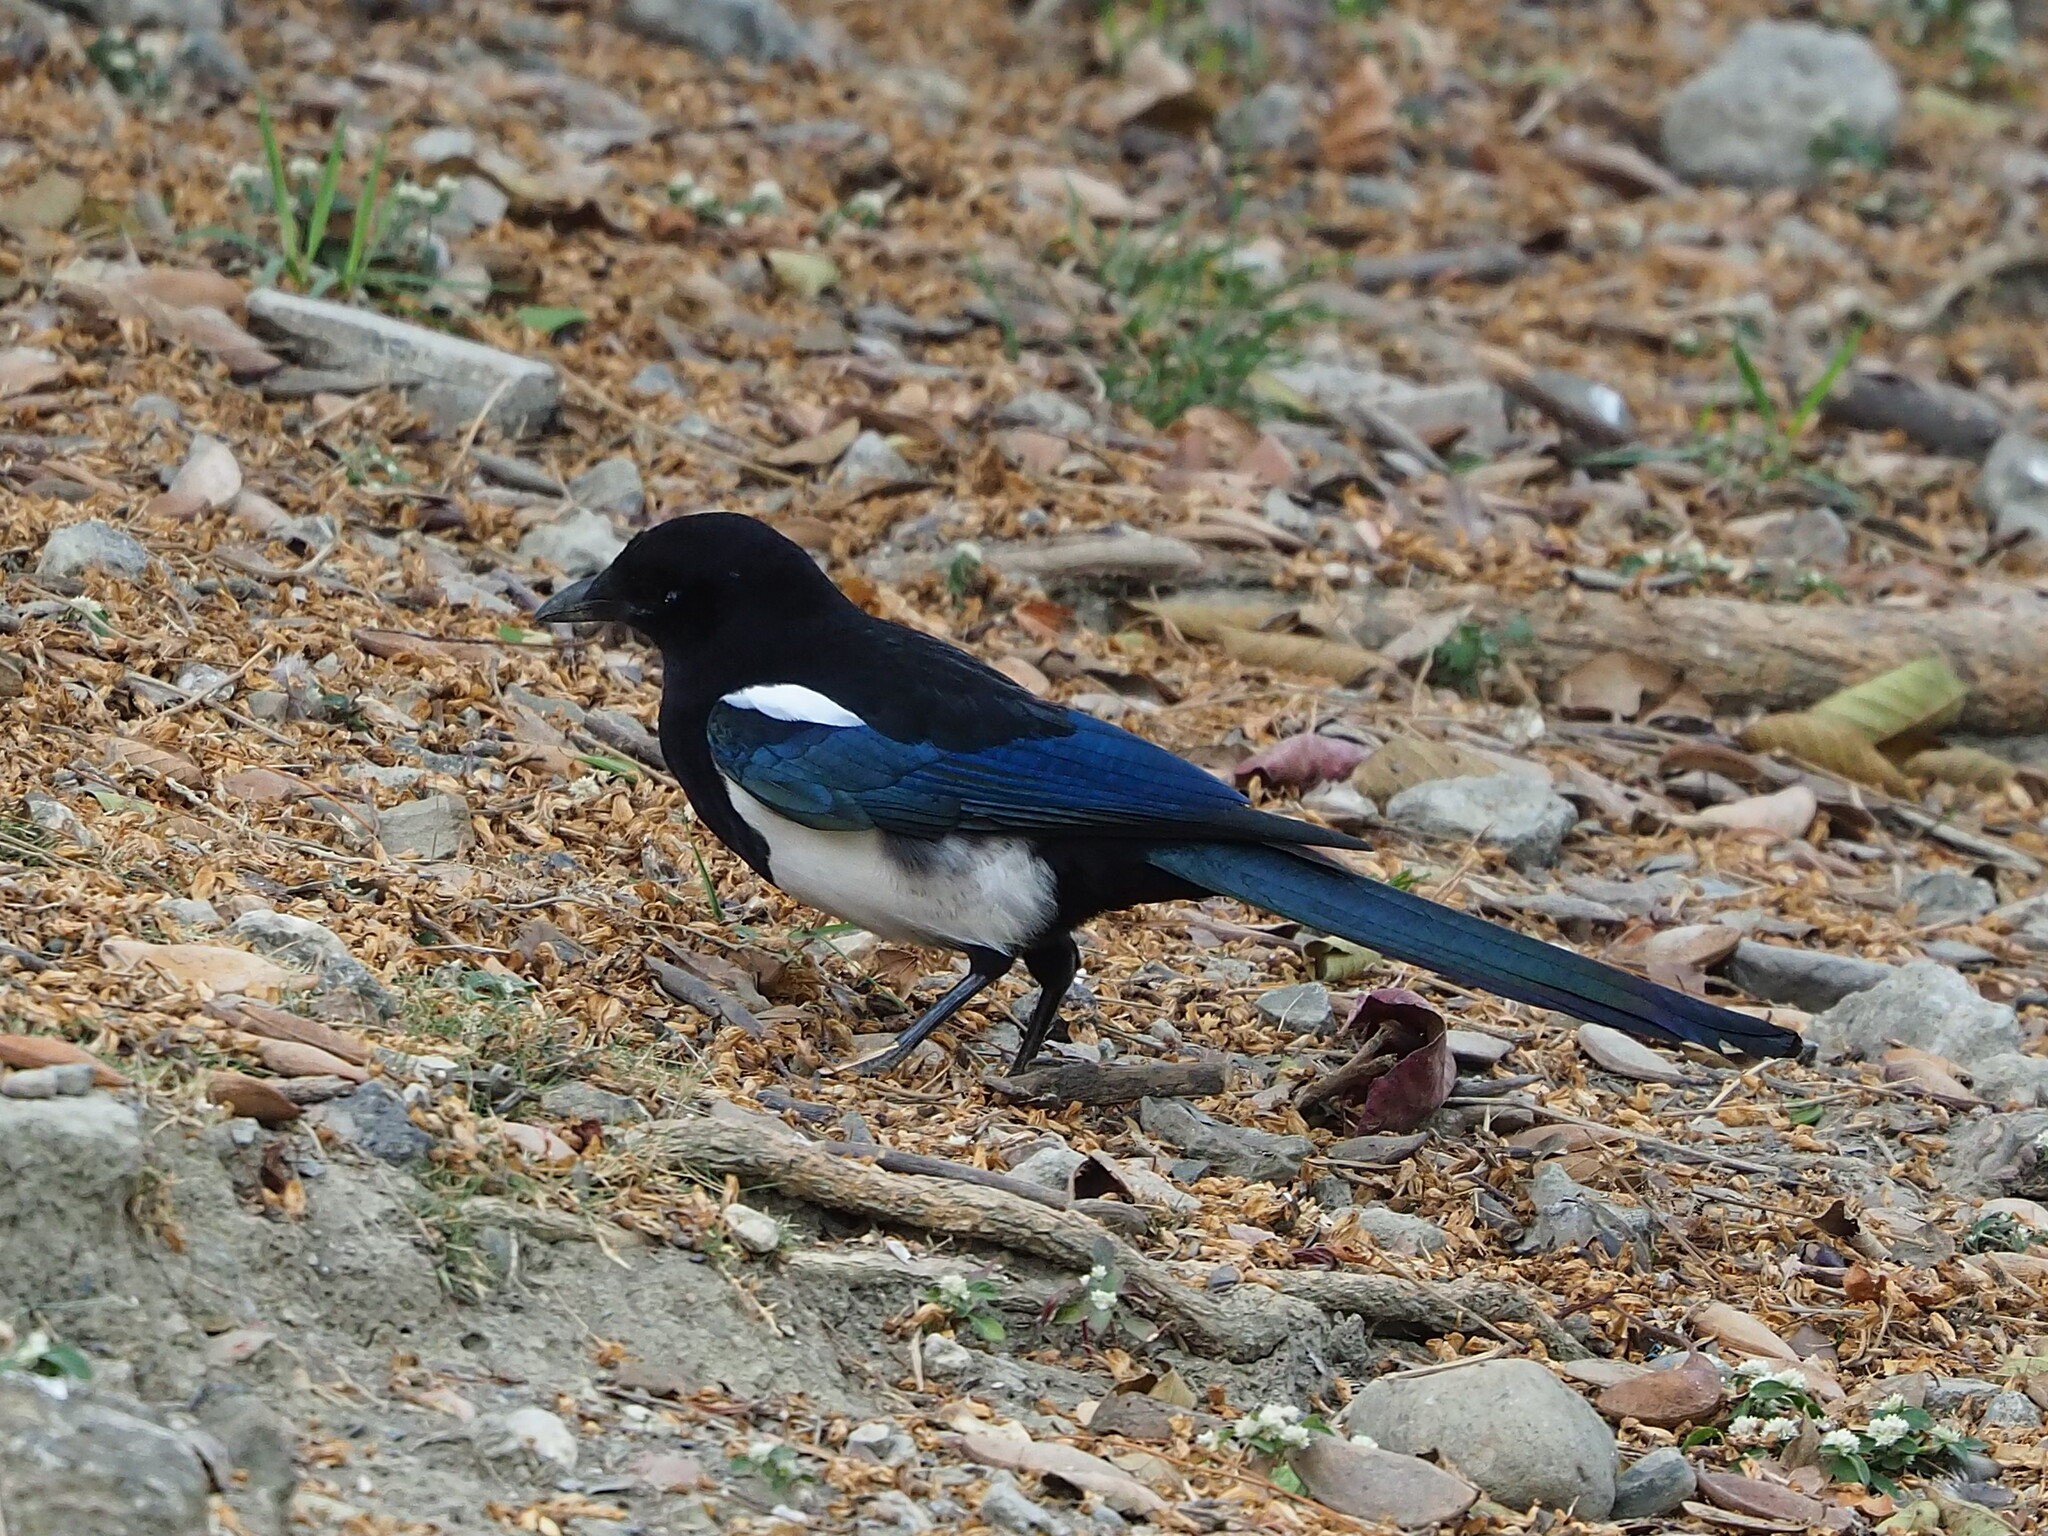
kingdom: Animalia
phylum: Chordata
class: Aves
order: Passeriformes
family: Corvidae
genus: Pica
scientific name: Pica serica
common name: Oriental magpie
